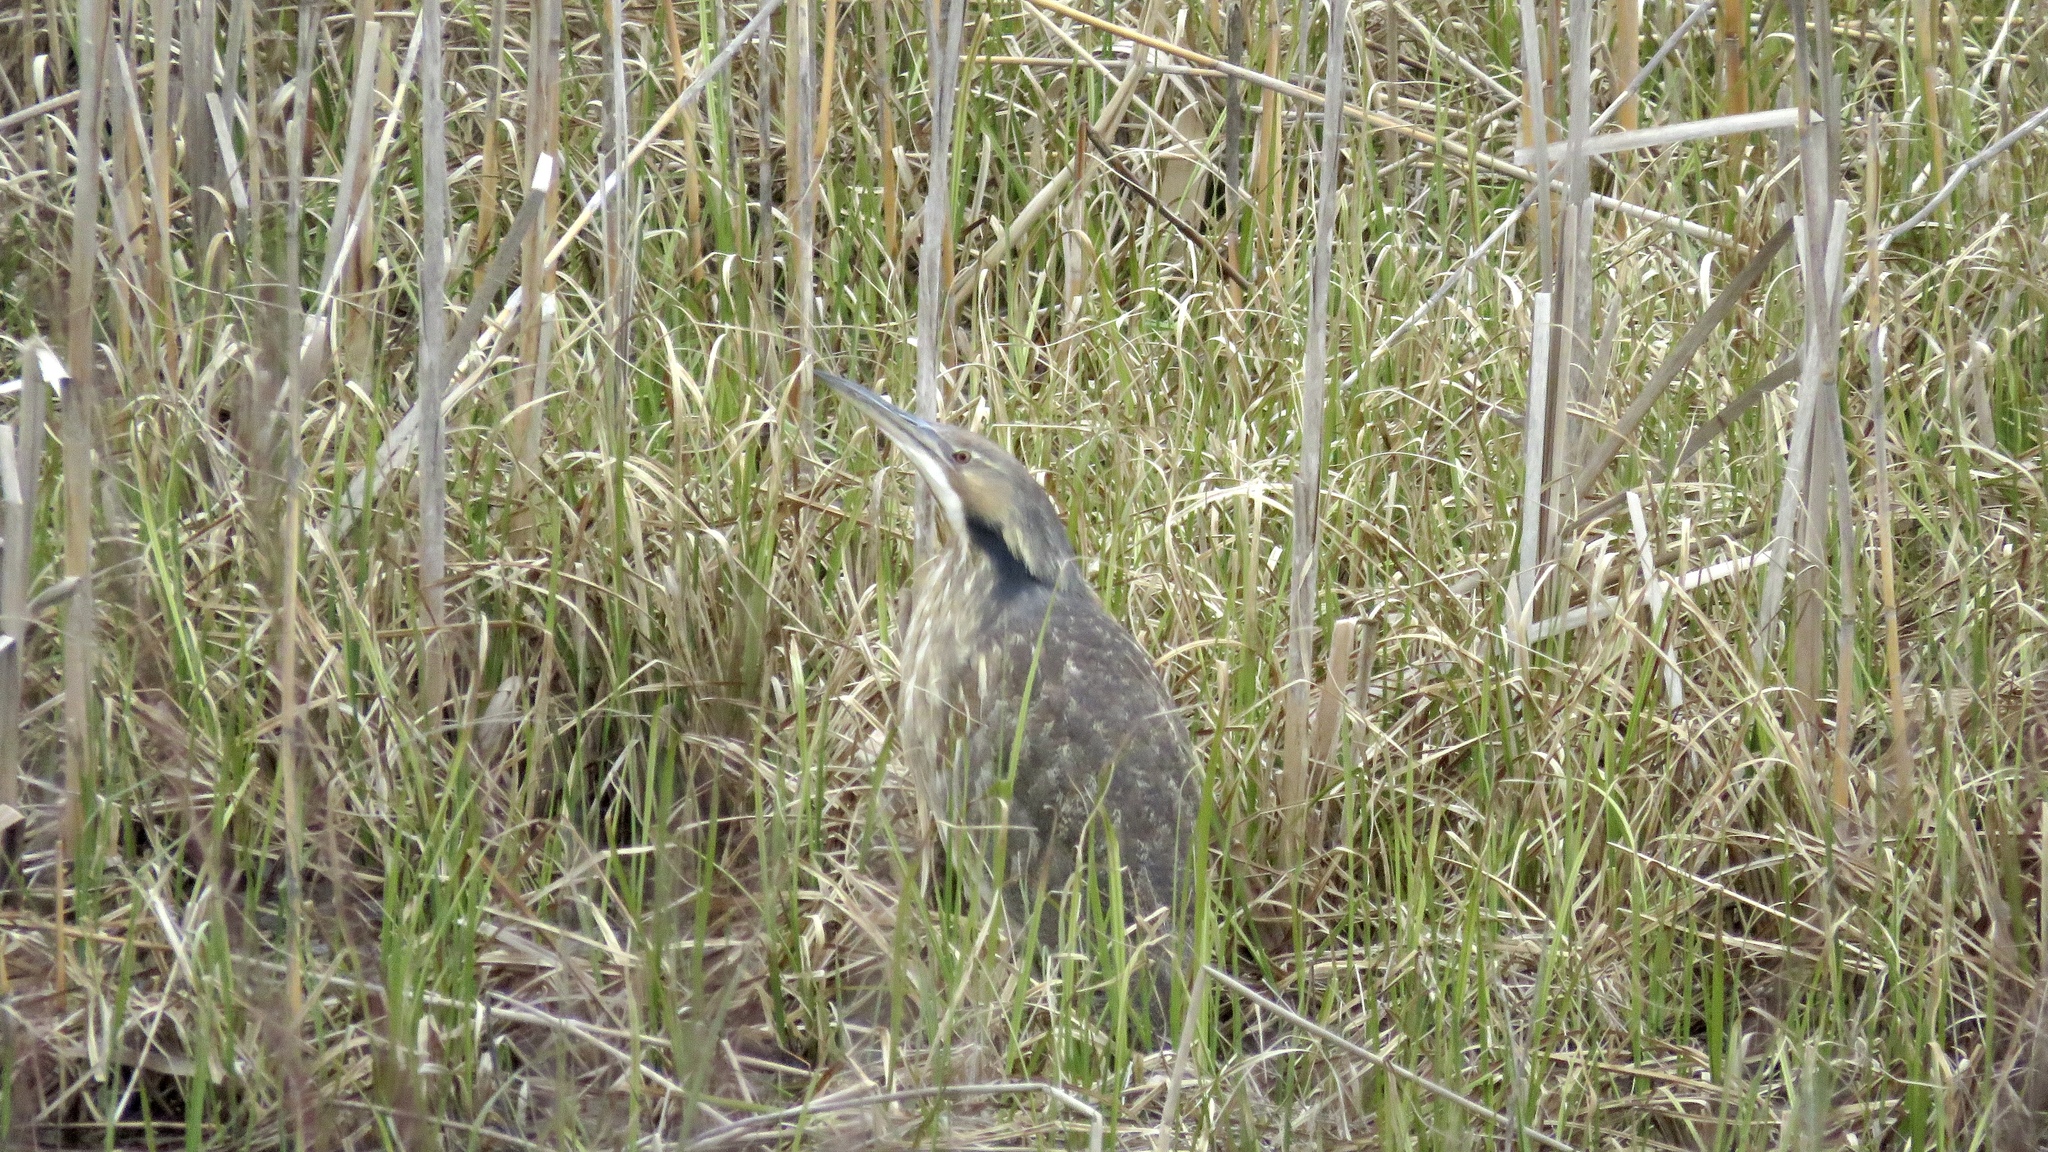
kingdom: Animalia
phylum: Chordata
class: Aves
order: Pelecaniformes
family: Ardeidae
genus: Botaurus
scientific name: Botaurus lentiginosus
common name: American bittern
